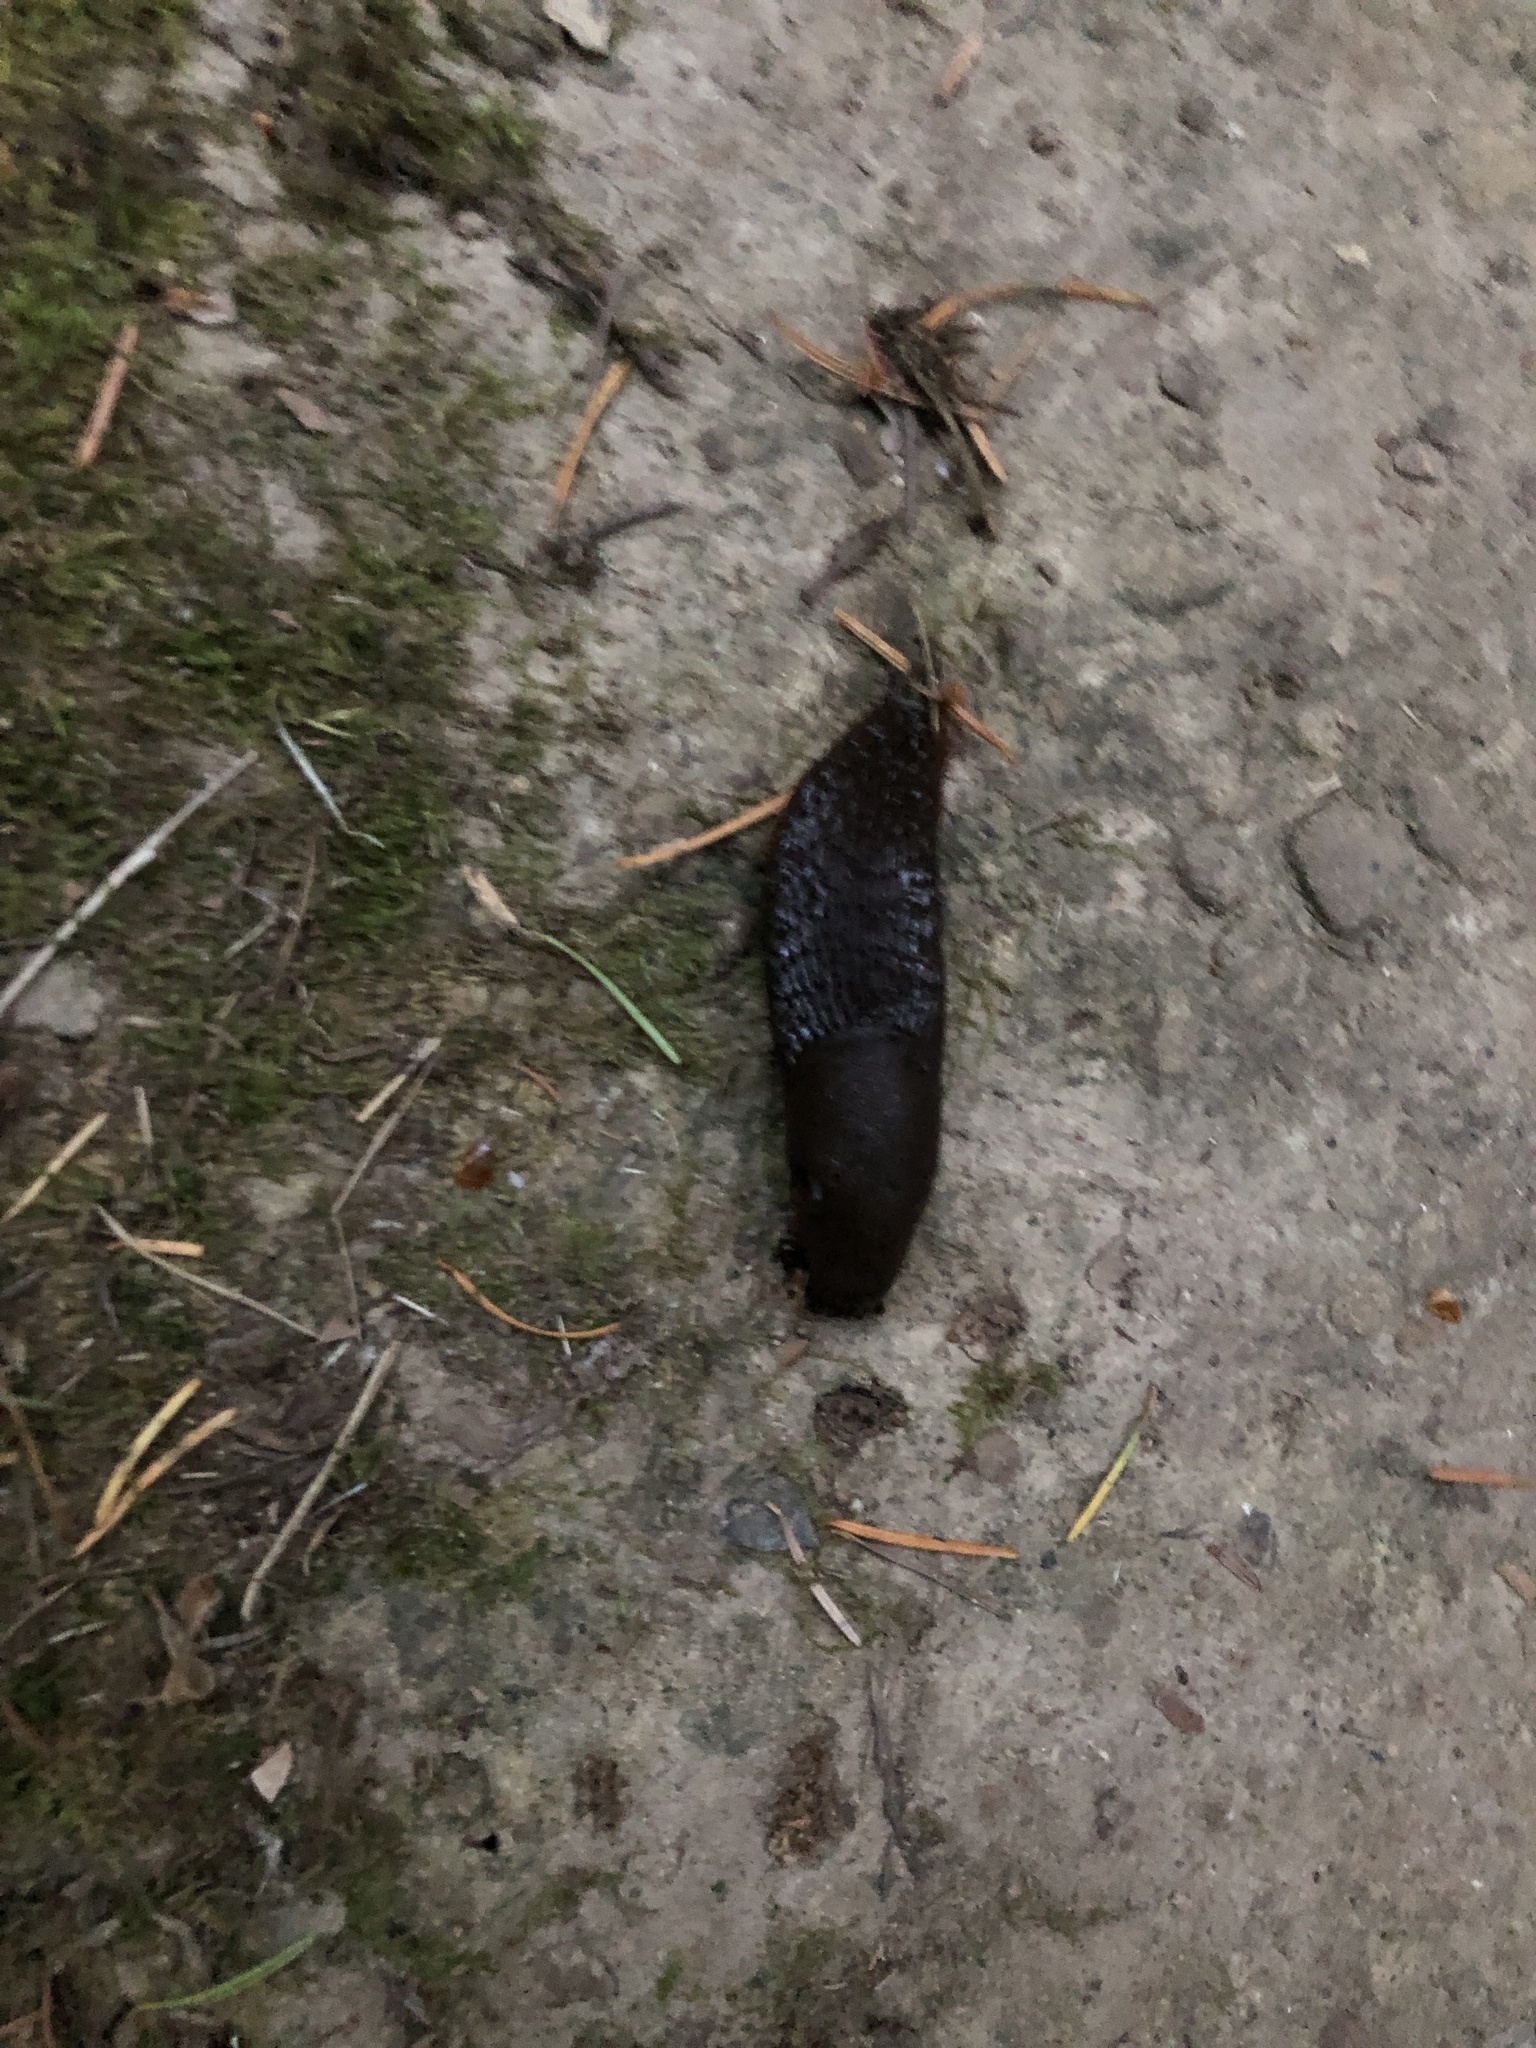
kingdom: Animalia
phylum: Mollusca
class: Gastropoda
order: Stylommatophora
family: Arionidae
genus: Arion
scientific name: Arion
